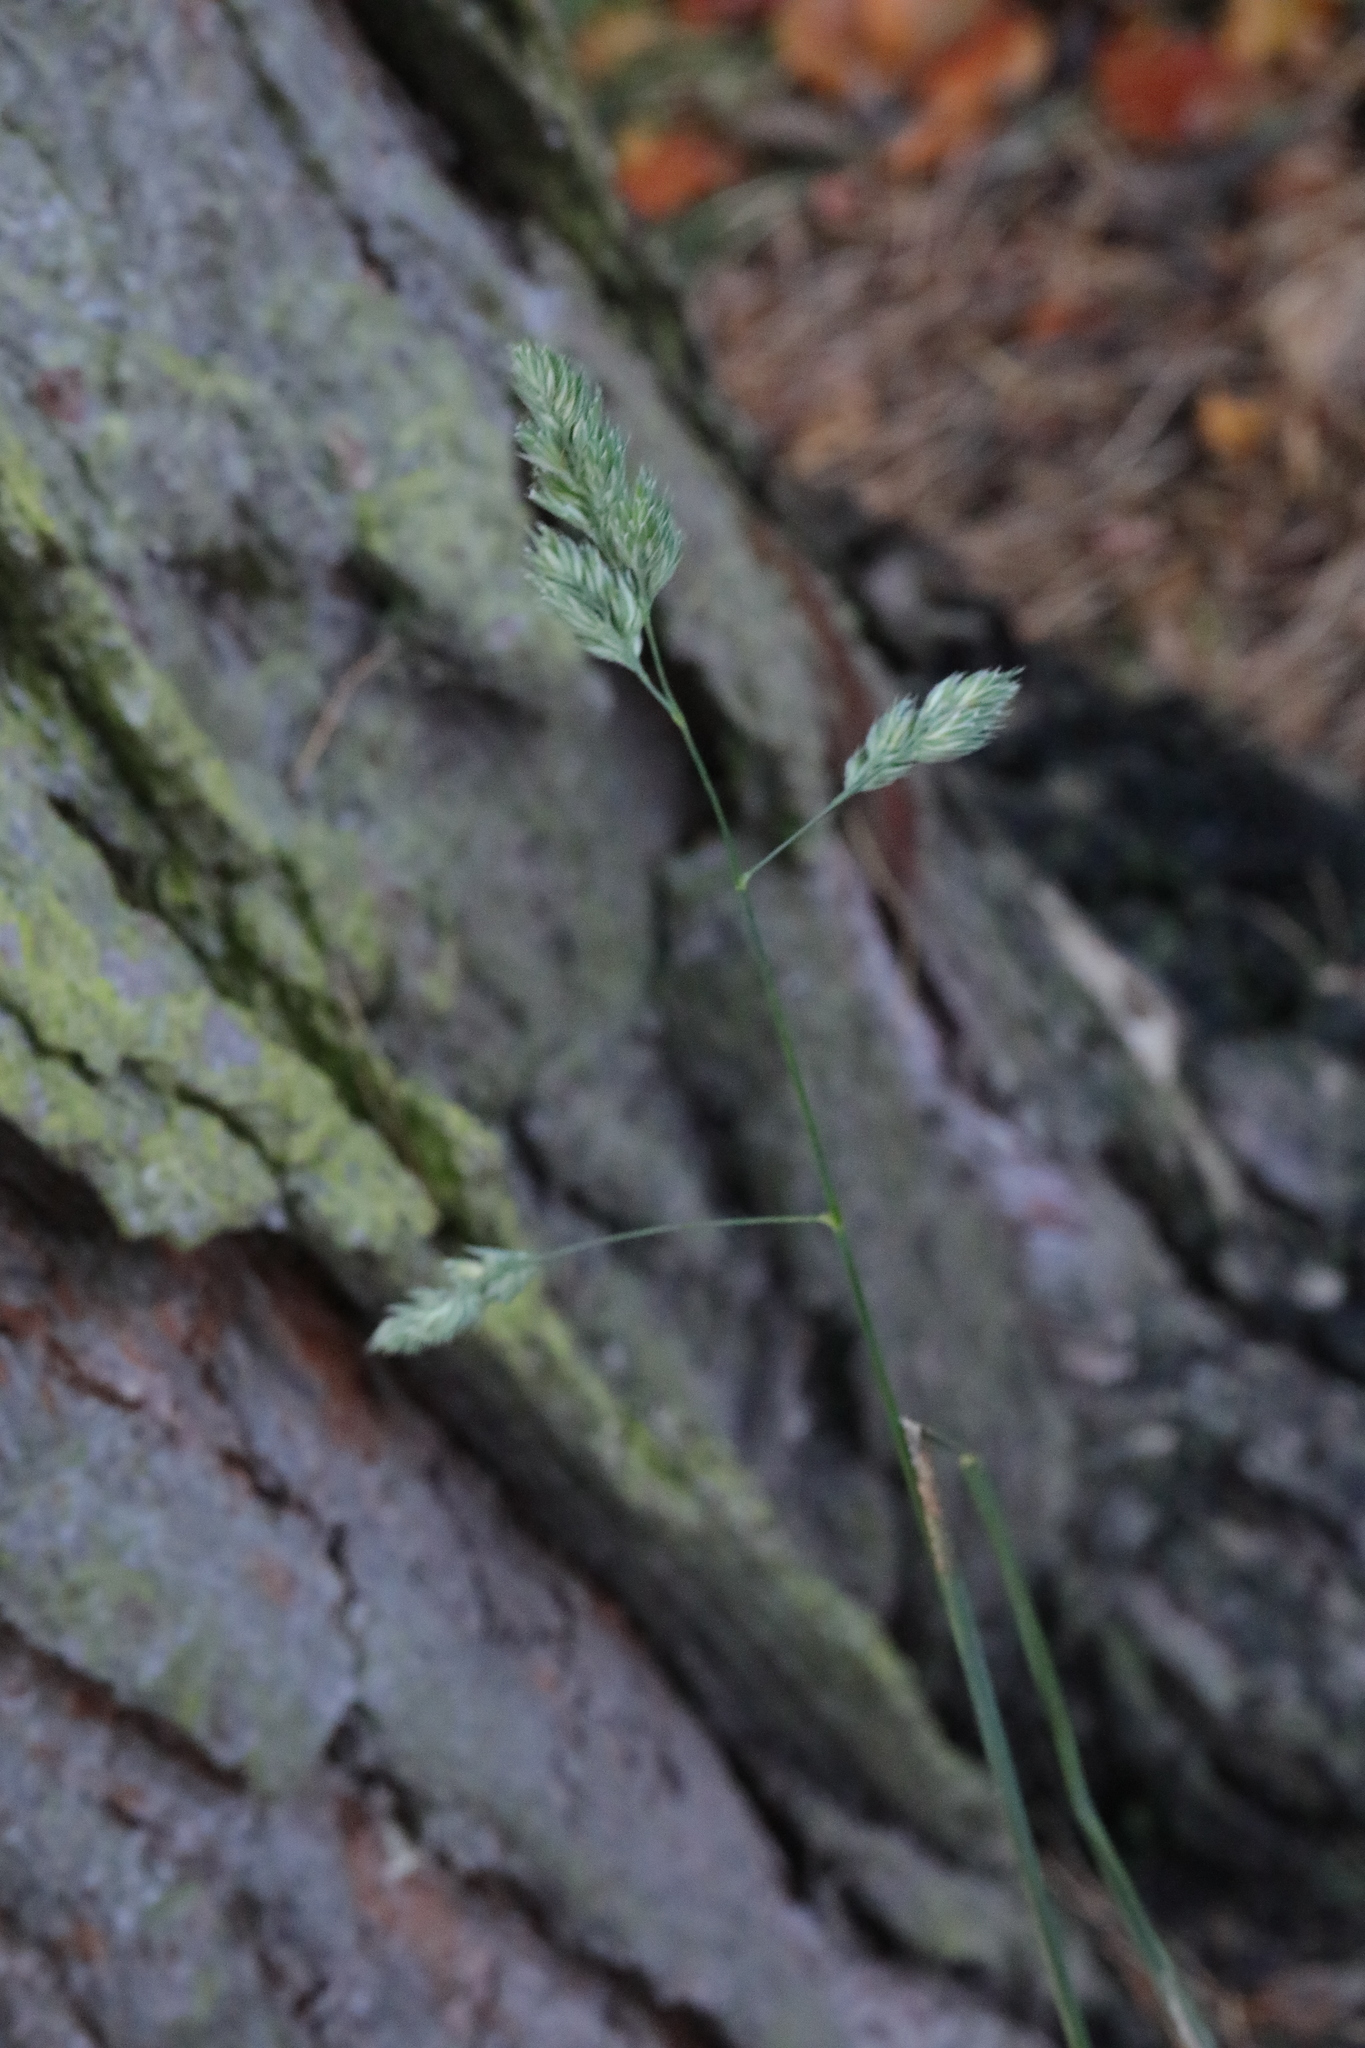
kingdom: Plantae
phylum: Tracheophyta
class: Liliopsida
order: Poales
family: Poaceae
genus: Dactylis
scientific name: Dactylis glomerata
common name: Orchardgrass
